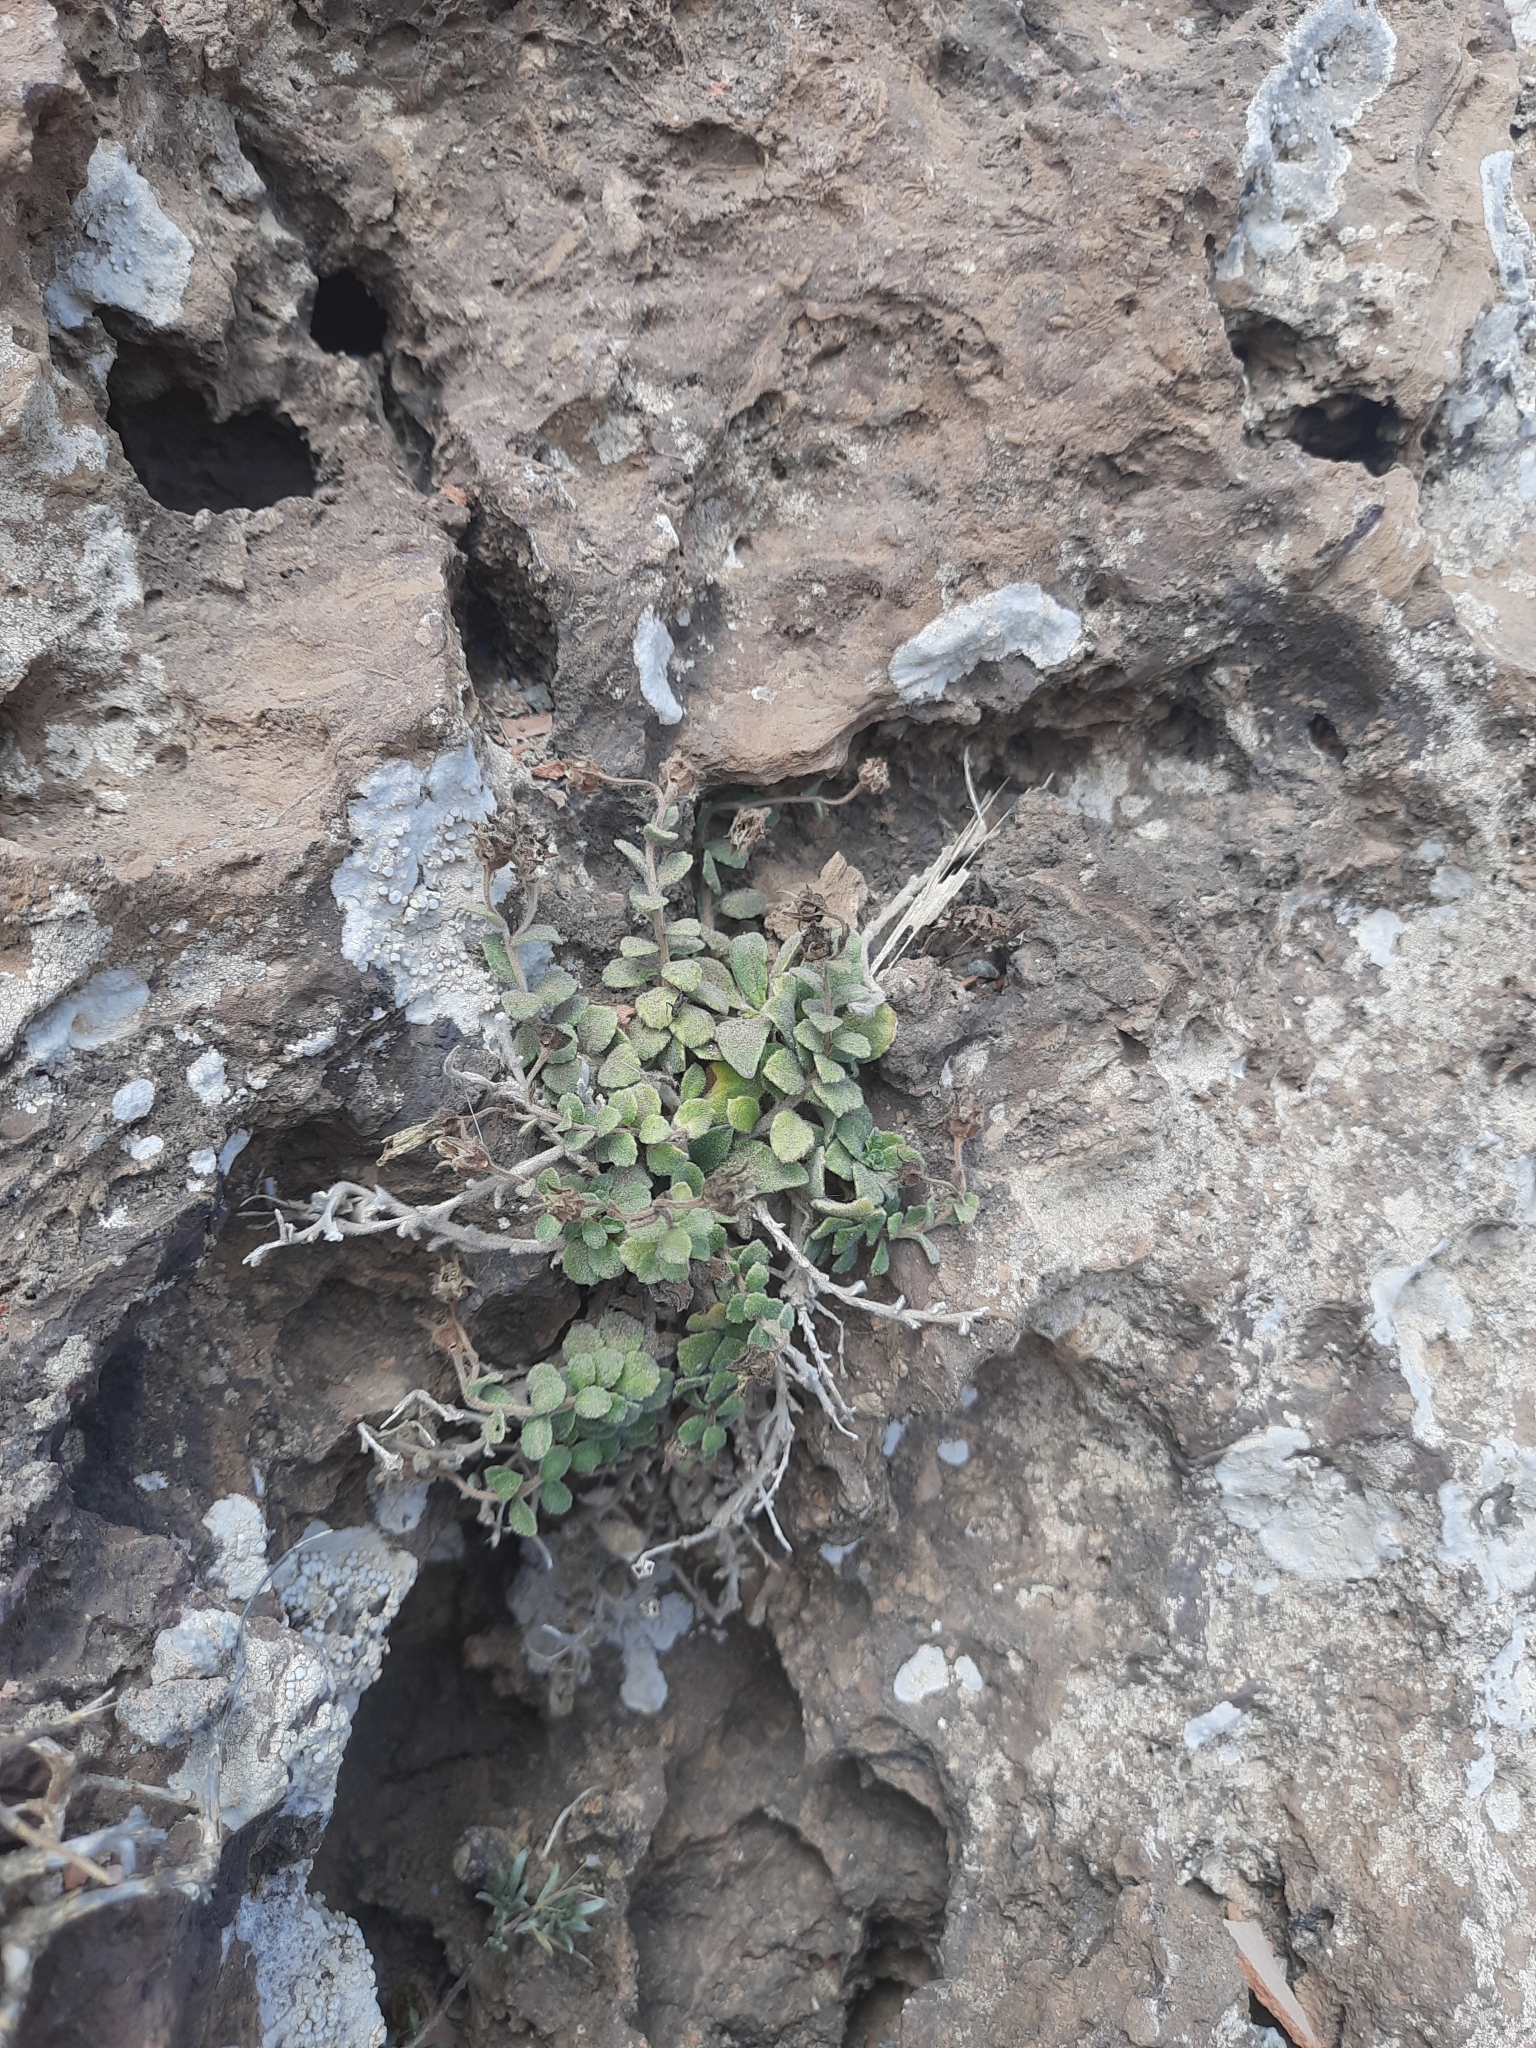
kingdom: Plantae
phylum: Tracheophyta
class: Magnoliopsida
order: Asterales
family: Campanulaceae
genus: Campanula
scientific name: Campanula mollis
